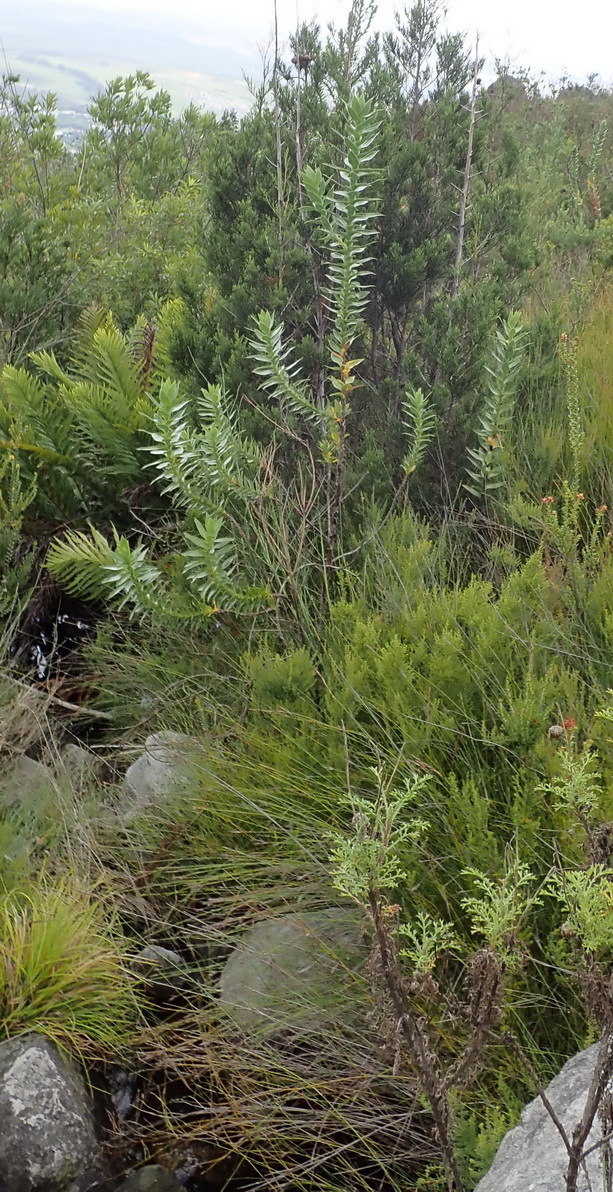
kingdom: Plantae
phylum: Tracheophyta
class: Magnoliopsida
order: Rosales
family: Rosaceae
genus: Cliffortia
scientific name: Cliffortia grandifolia
